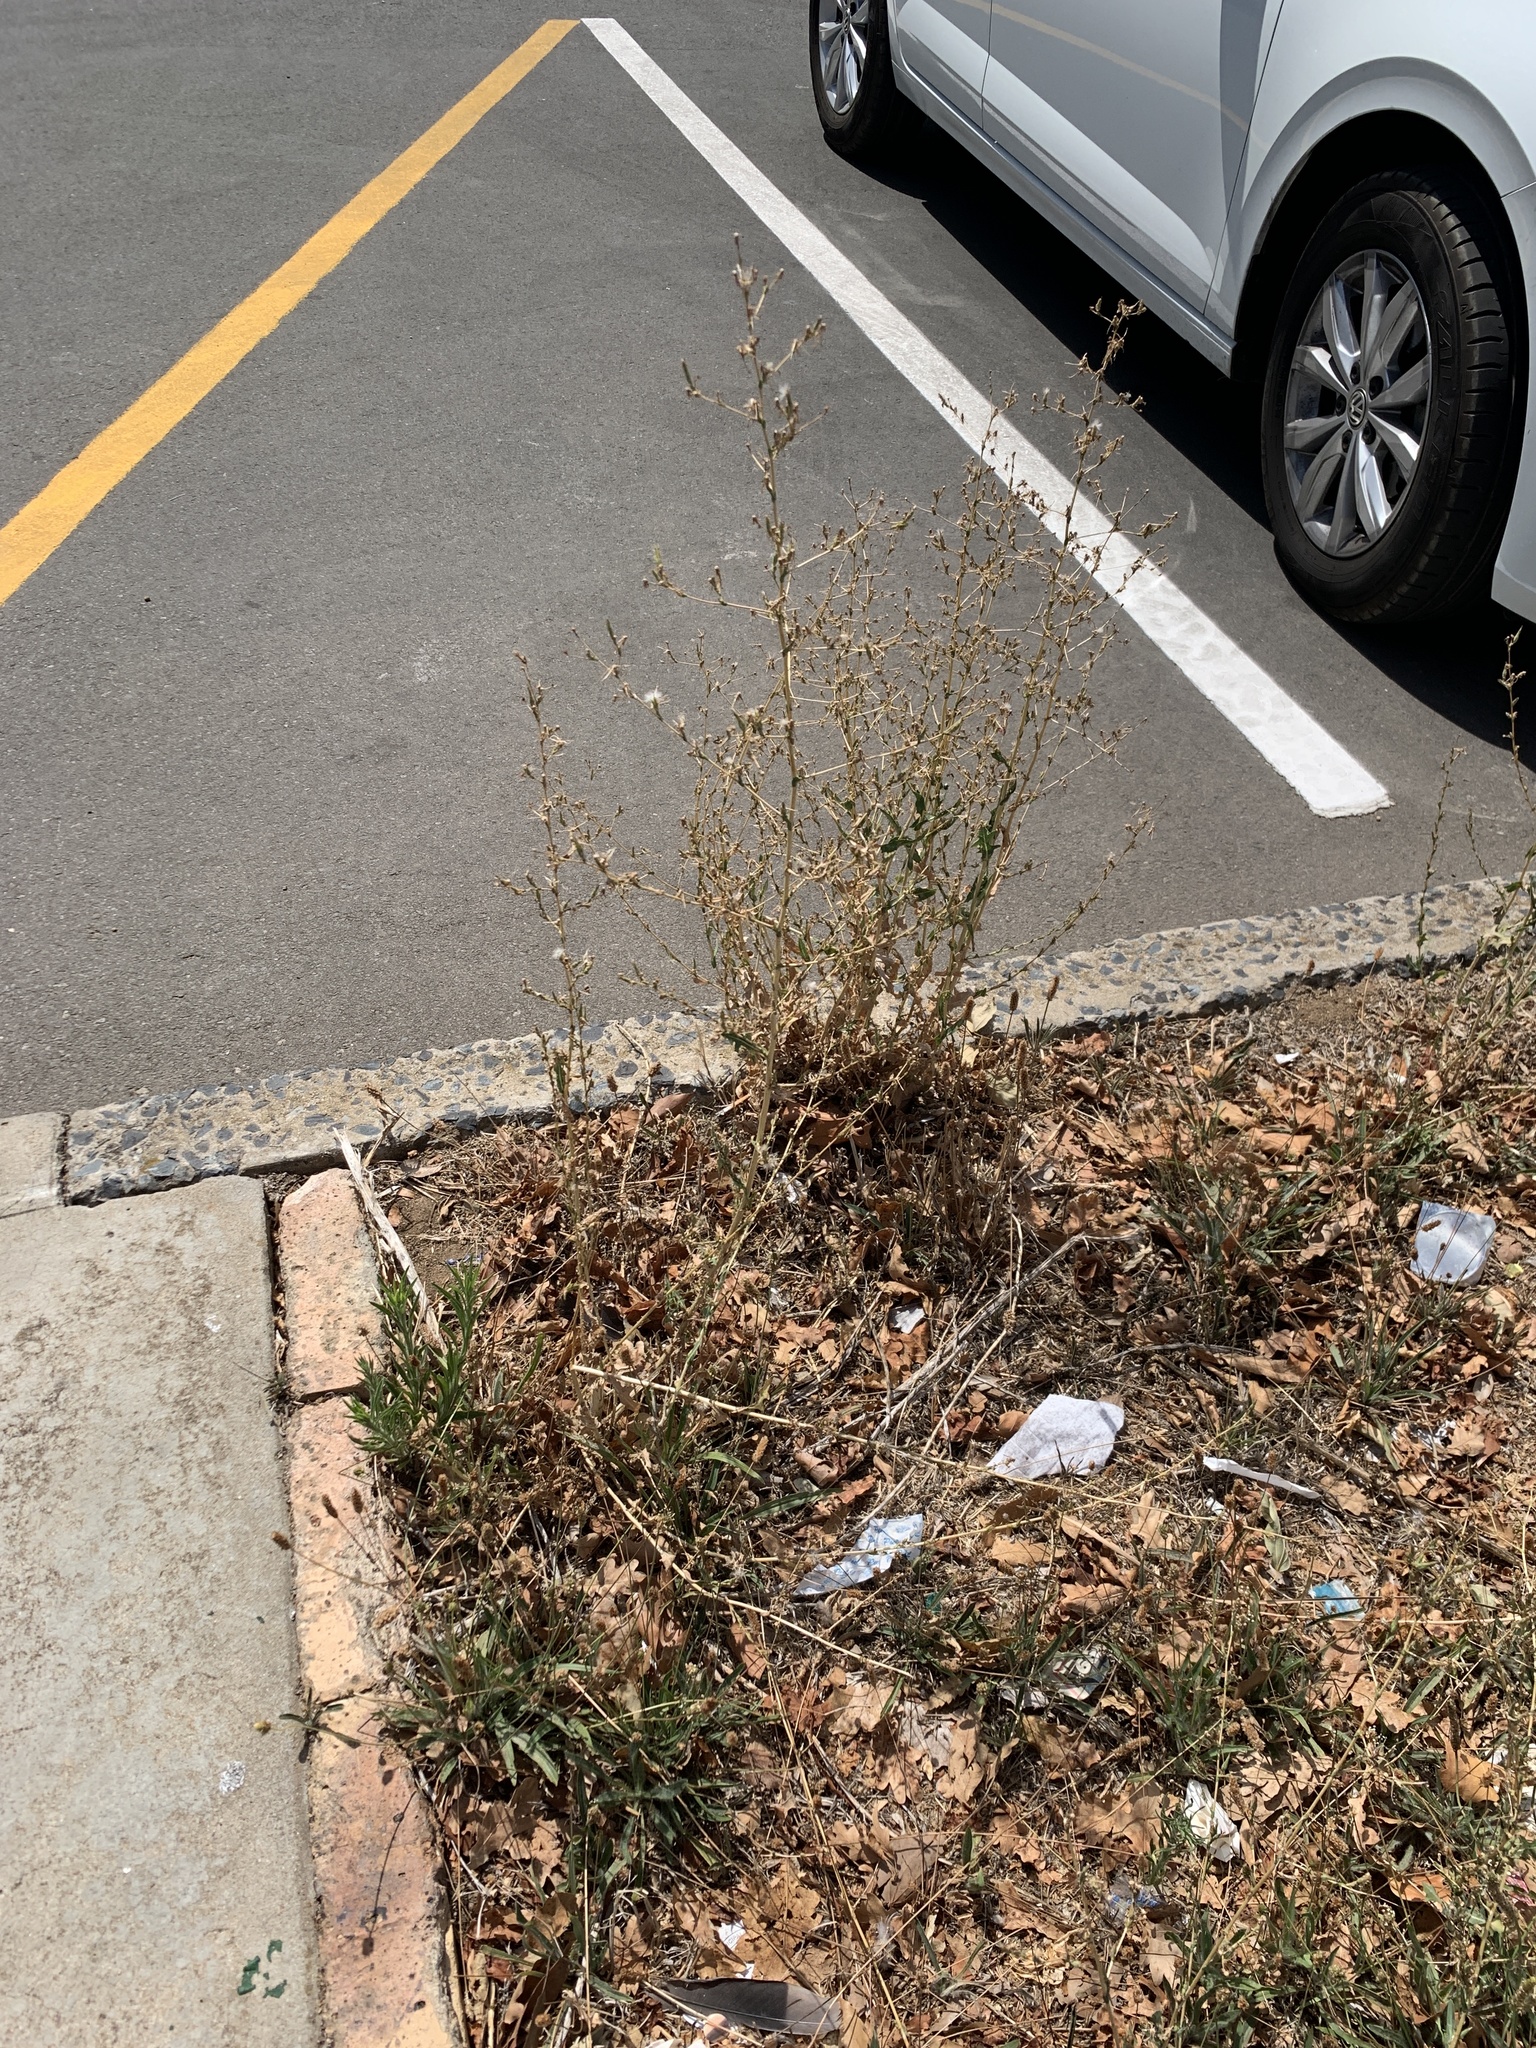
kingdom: Plantae
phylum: Tracheophyta
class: Magnoliopsida
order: Asterales
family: Asteraceae
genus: Lactuca
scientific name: Lactuca serriola
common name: Prickly lettuce
